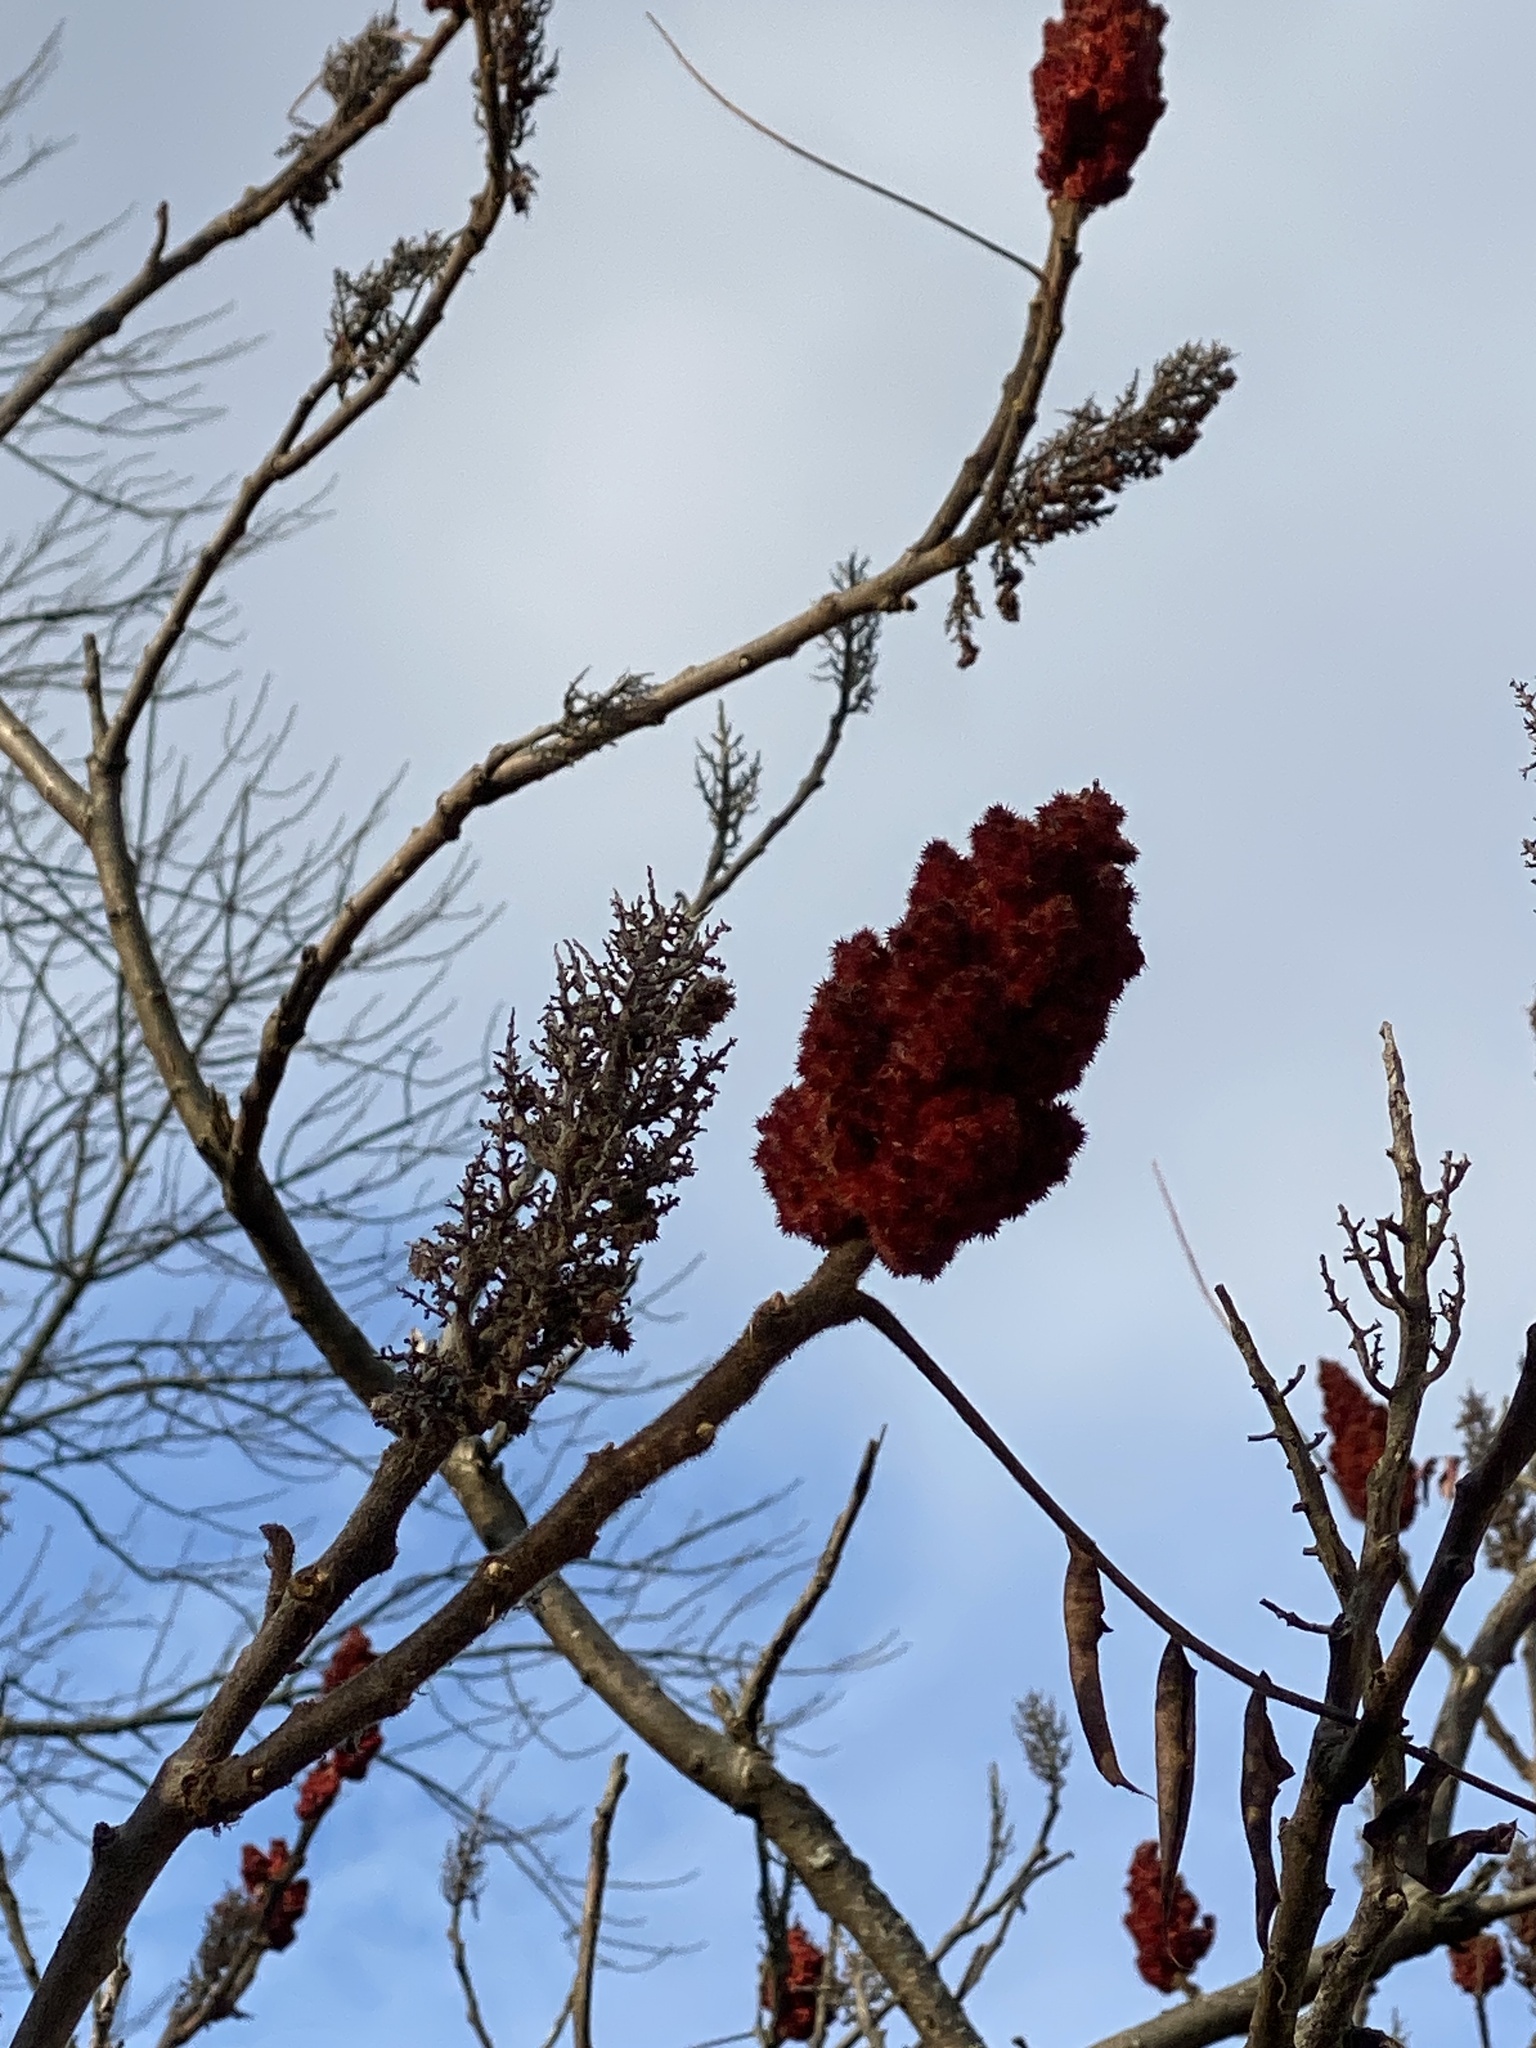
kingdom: Plantae
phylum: Tracheophyta
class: Magnoliopsida
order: Sapindales
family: Anacardiaceae
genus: Rhus
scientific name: Rhus typhina
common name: Staghorn sumac
